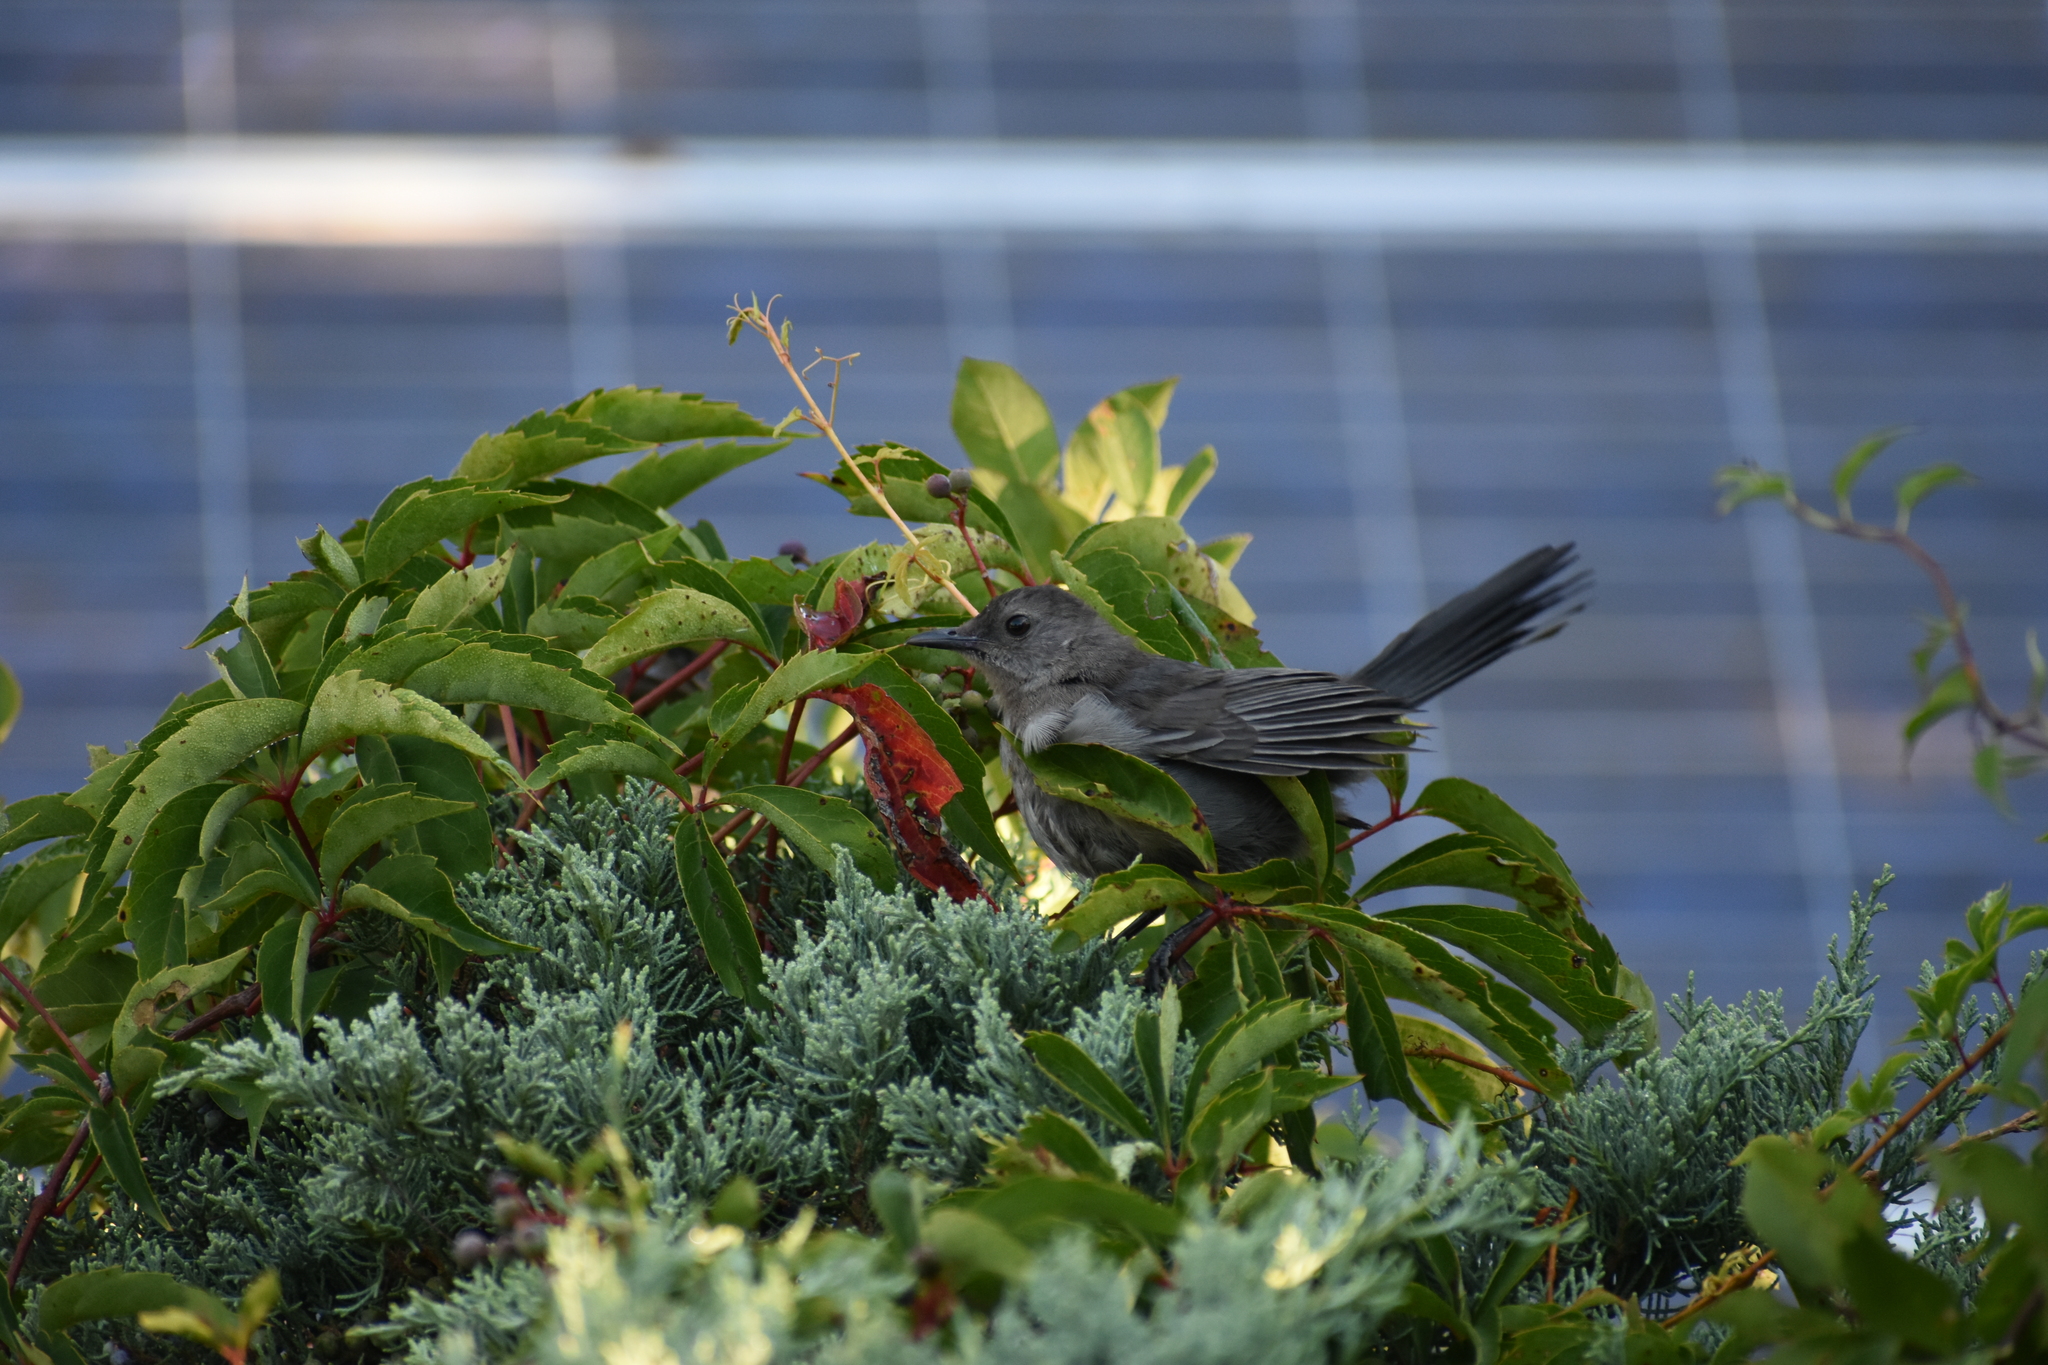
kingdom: Animalia
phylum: Chordata
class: Aves
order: Passeriformes
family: Mimidae
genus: Dumetella
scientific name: Dumetella carolinensis
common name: Gray catbird
